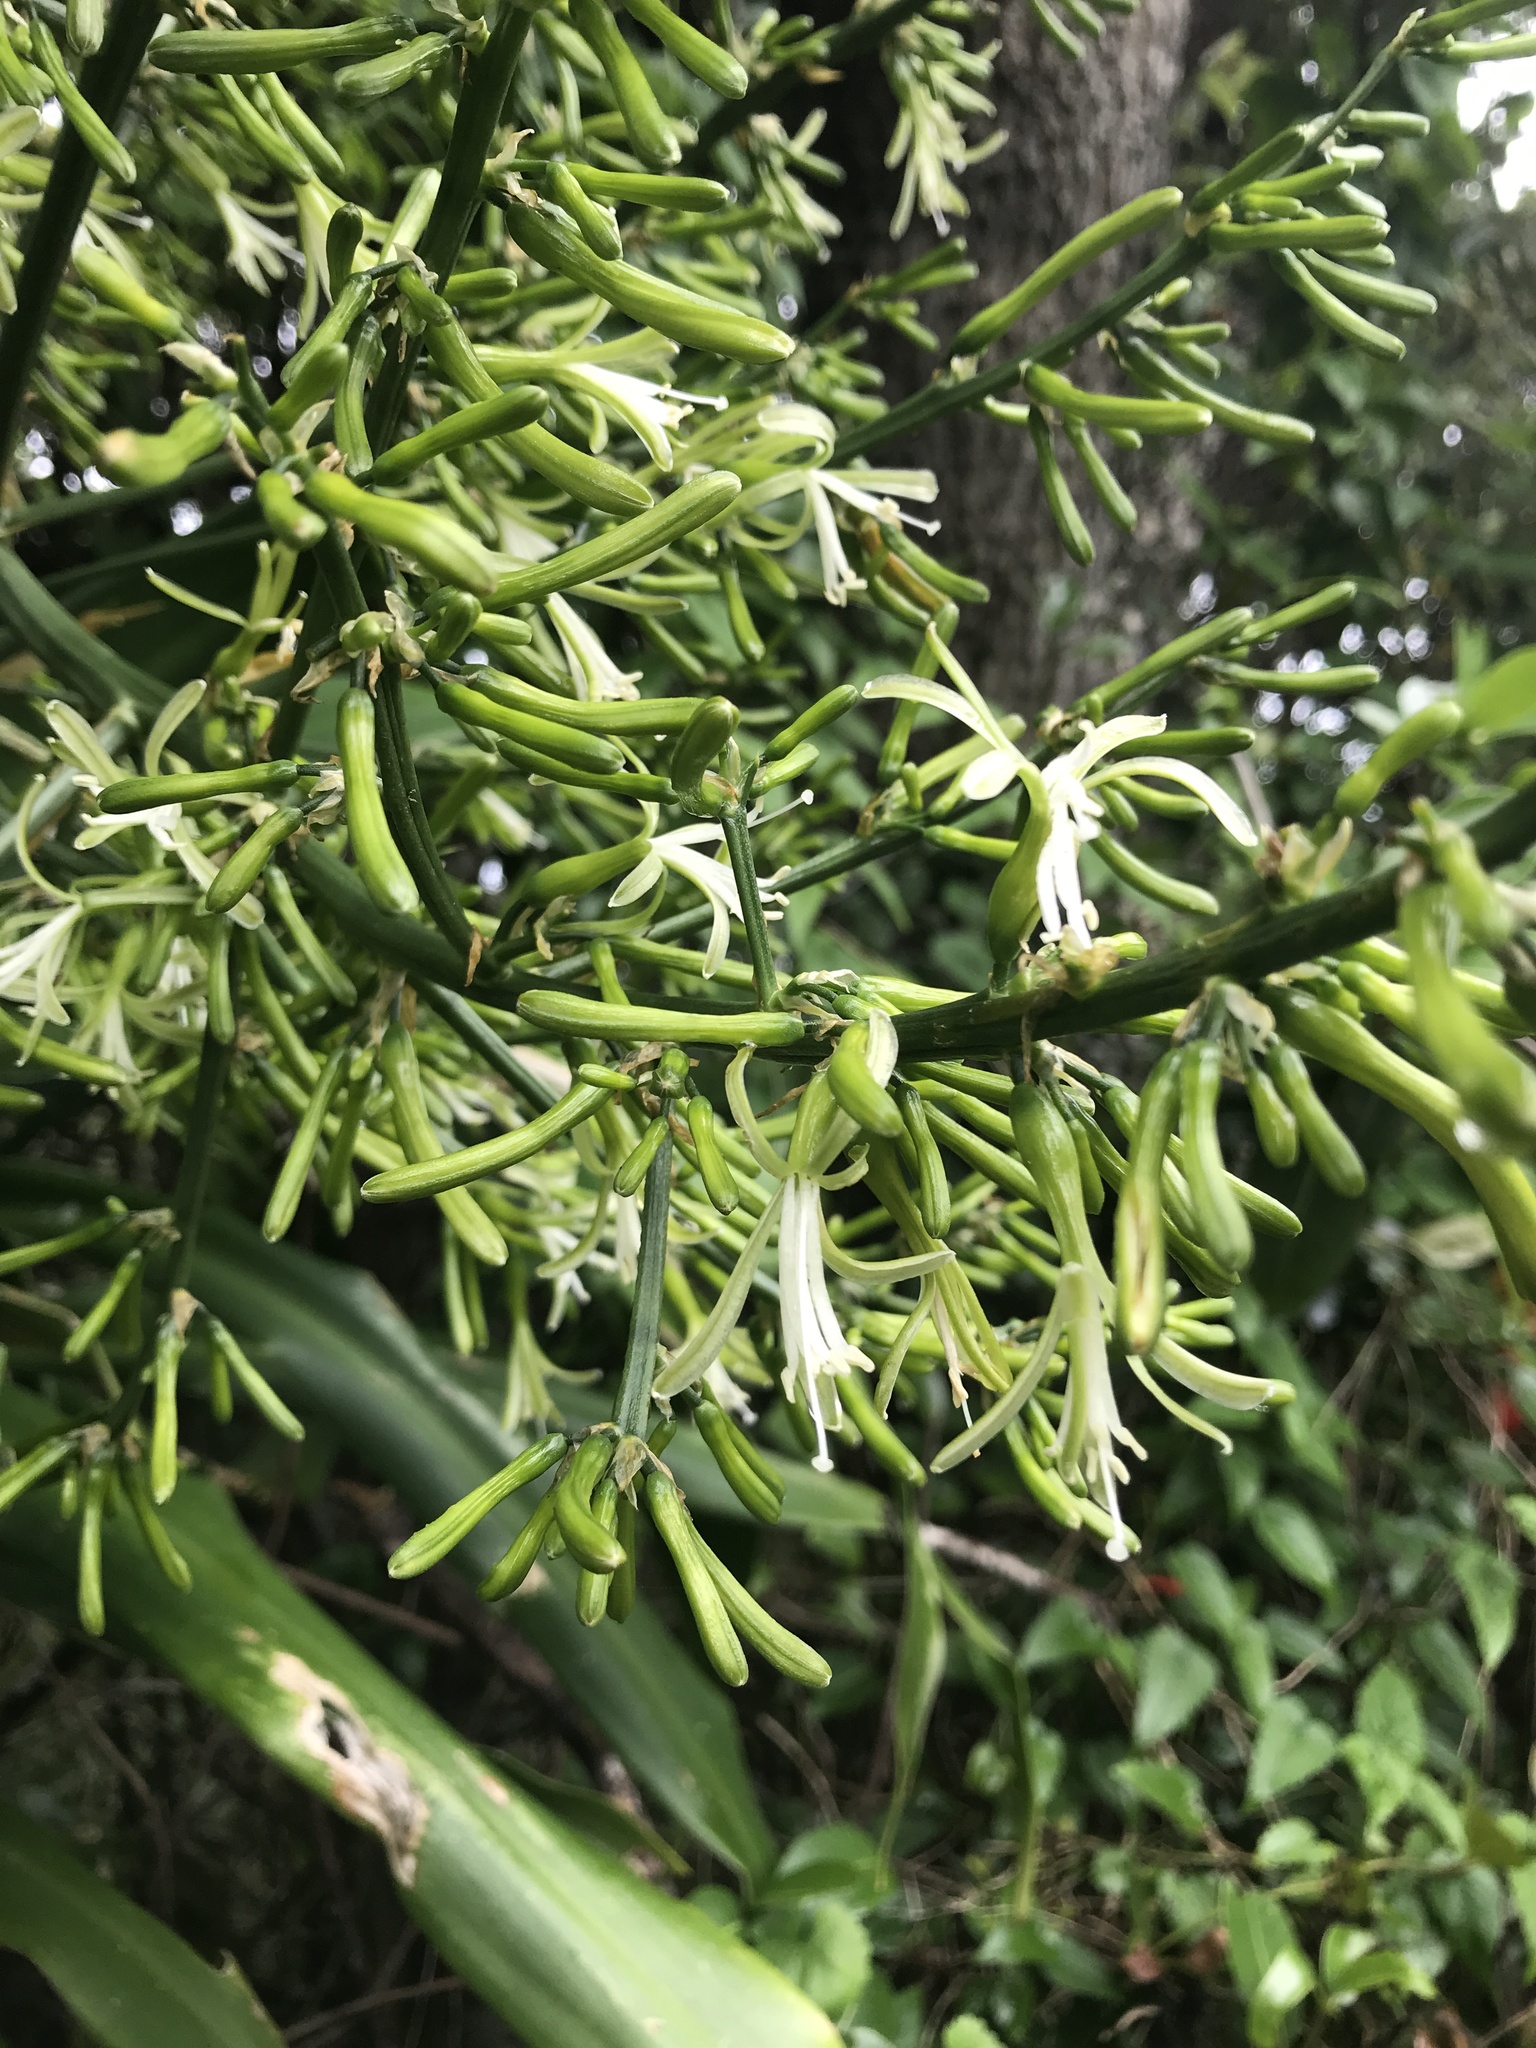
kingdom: Plantae
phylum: Tracheophyta
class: Liliopsida
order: Asparagales
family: Asparagaceae
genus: Dracaena
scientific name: Dracaena aletriformis
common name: Large-leaved dragon tree
